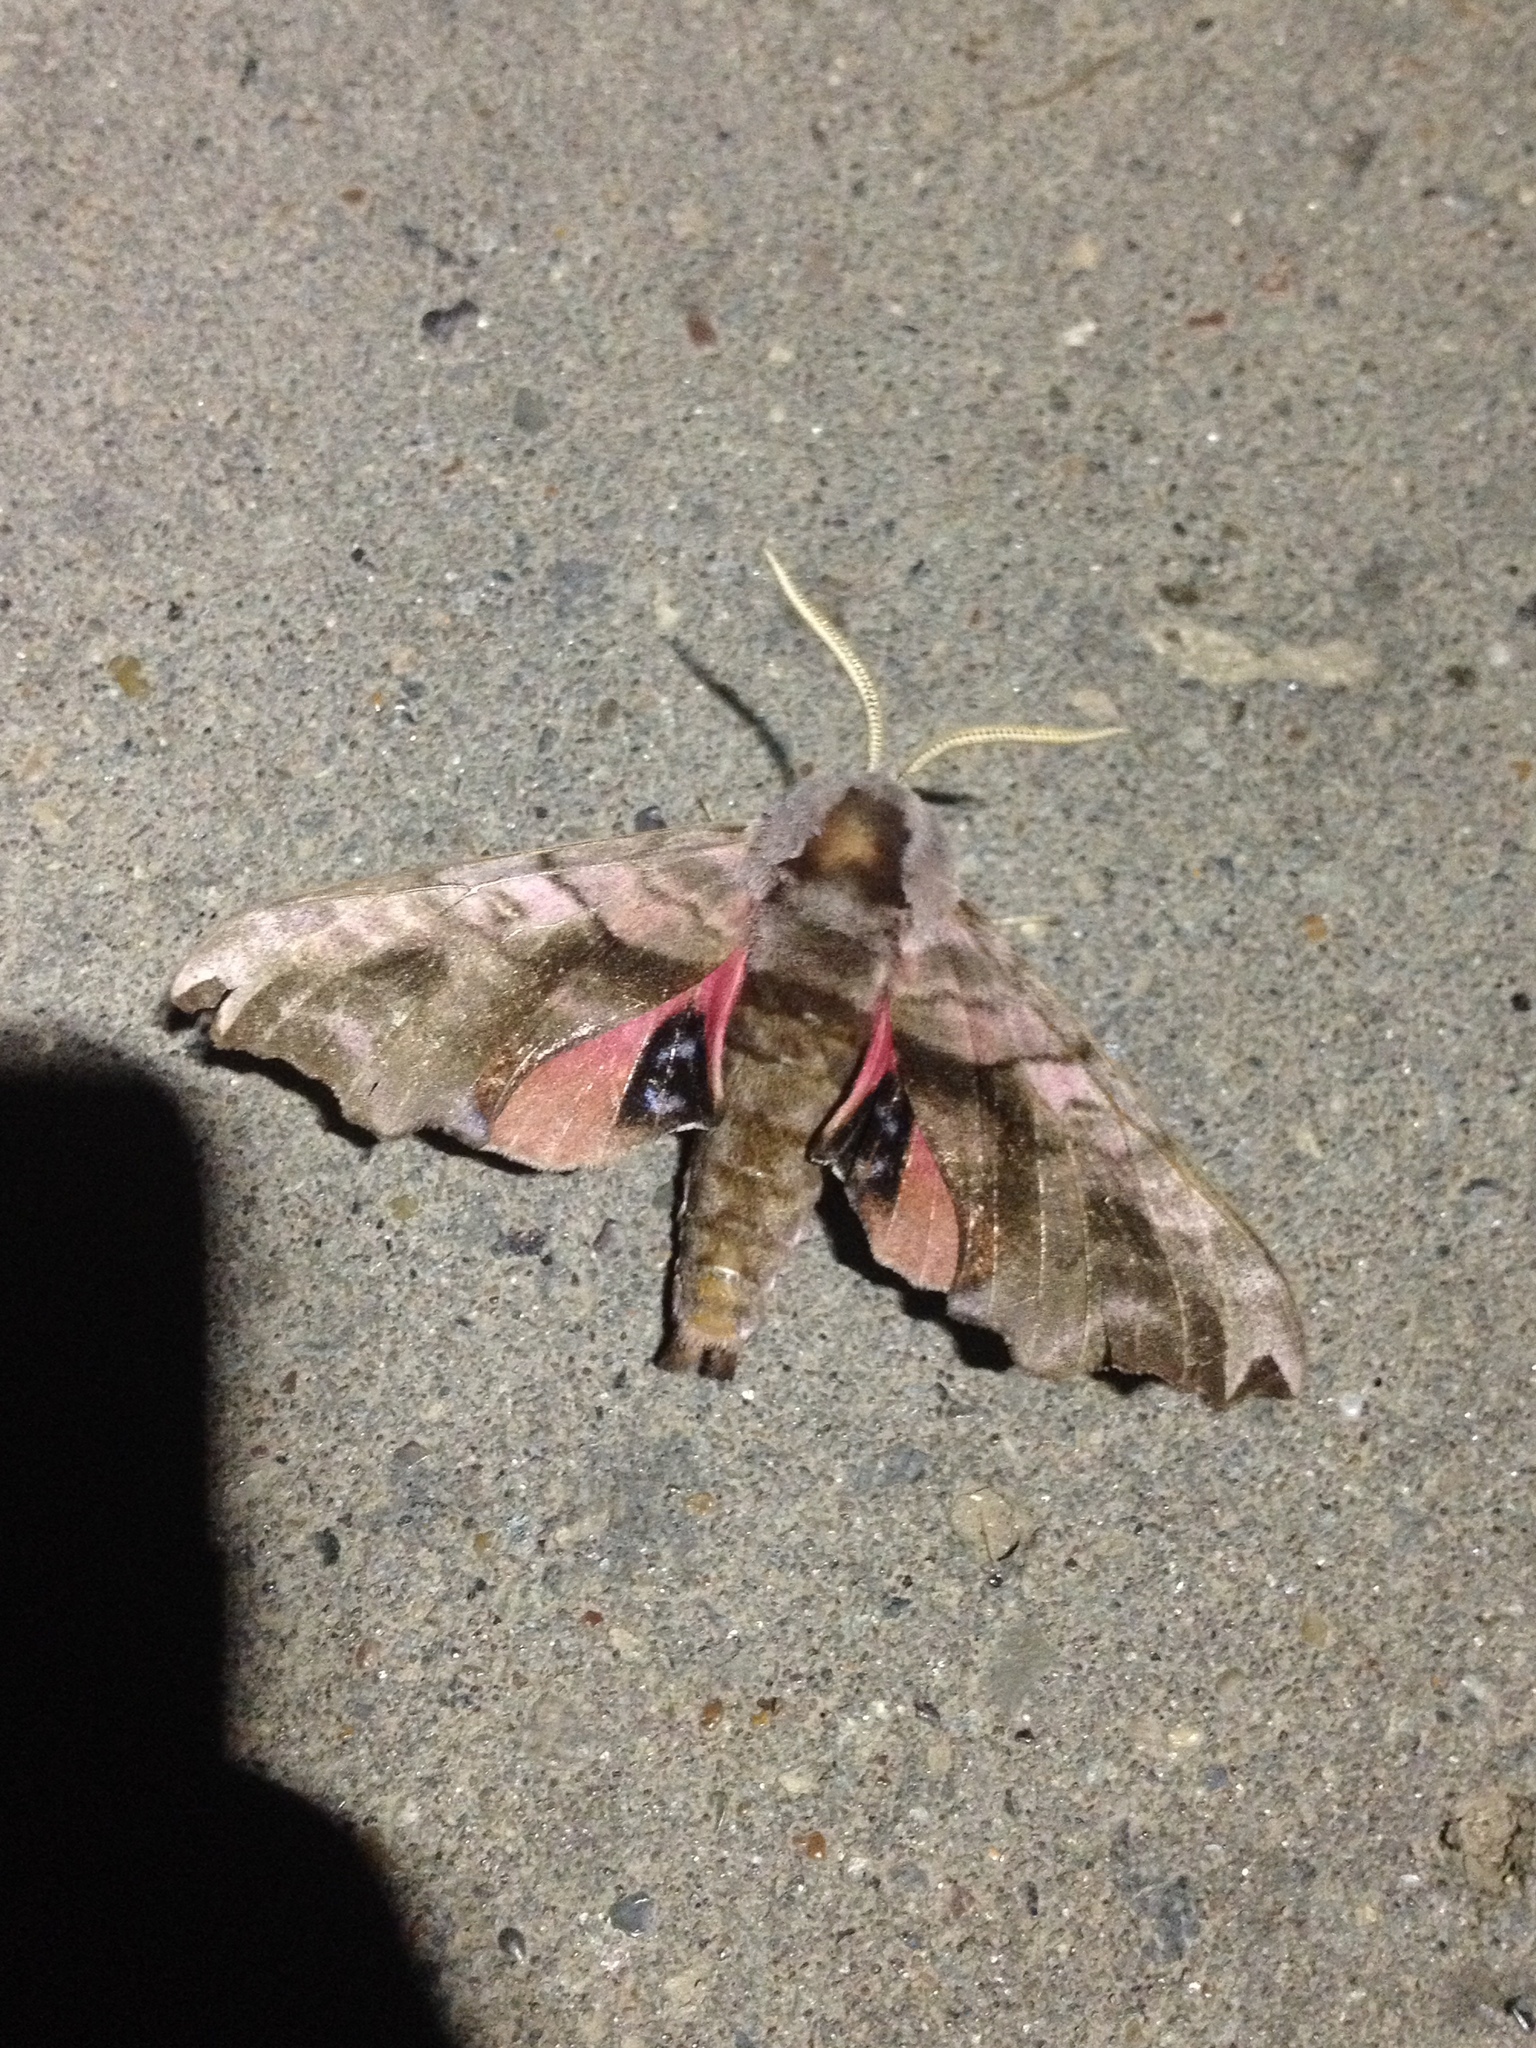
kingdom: Animalia
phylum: Arthropoda
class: Insecta
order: Lepidoptera
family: Sphingidae
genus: Smerinthus
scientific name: Smerinthus caecus
